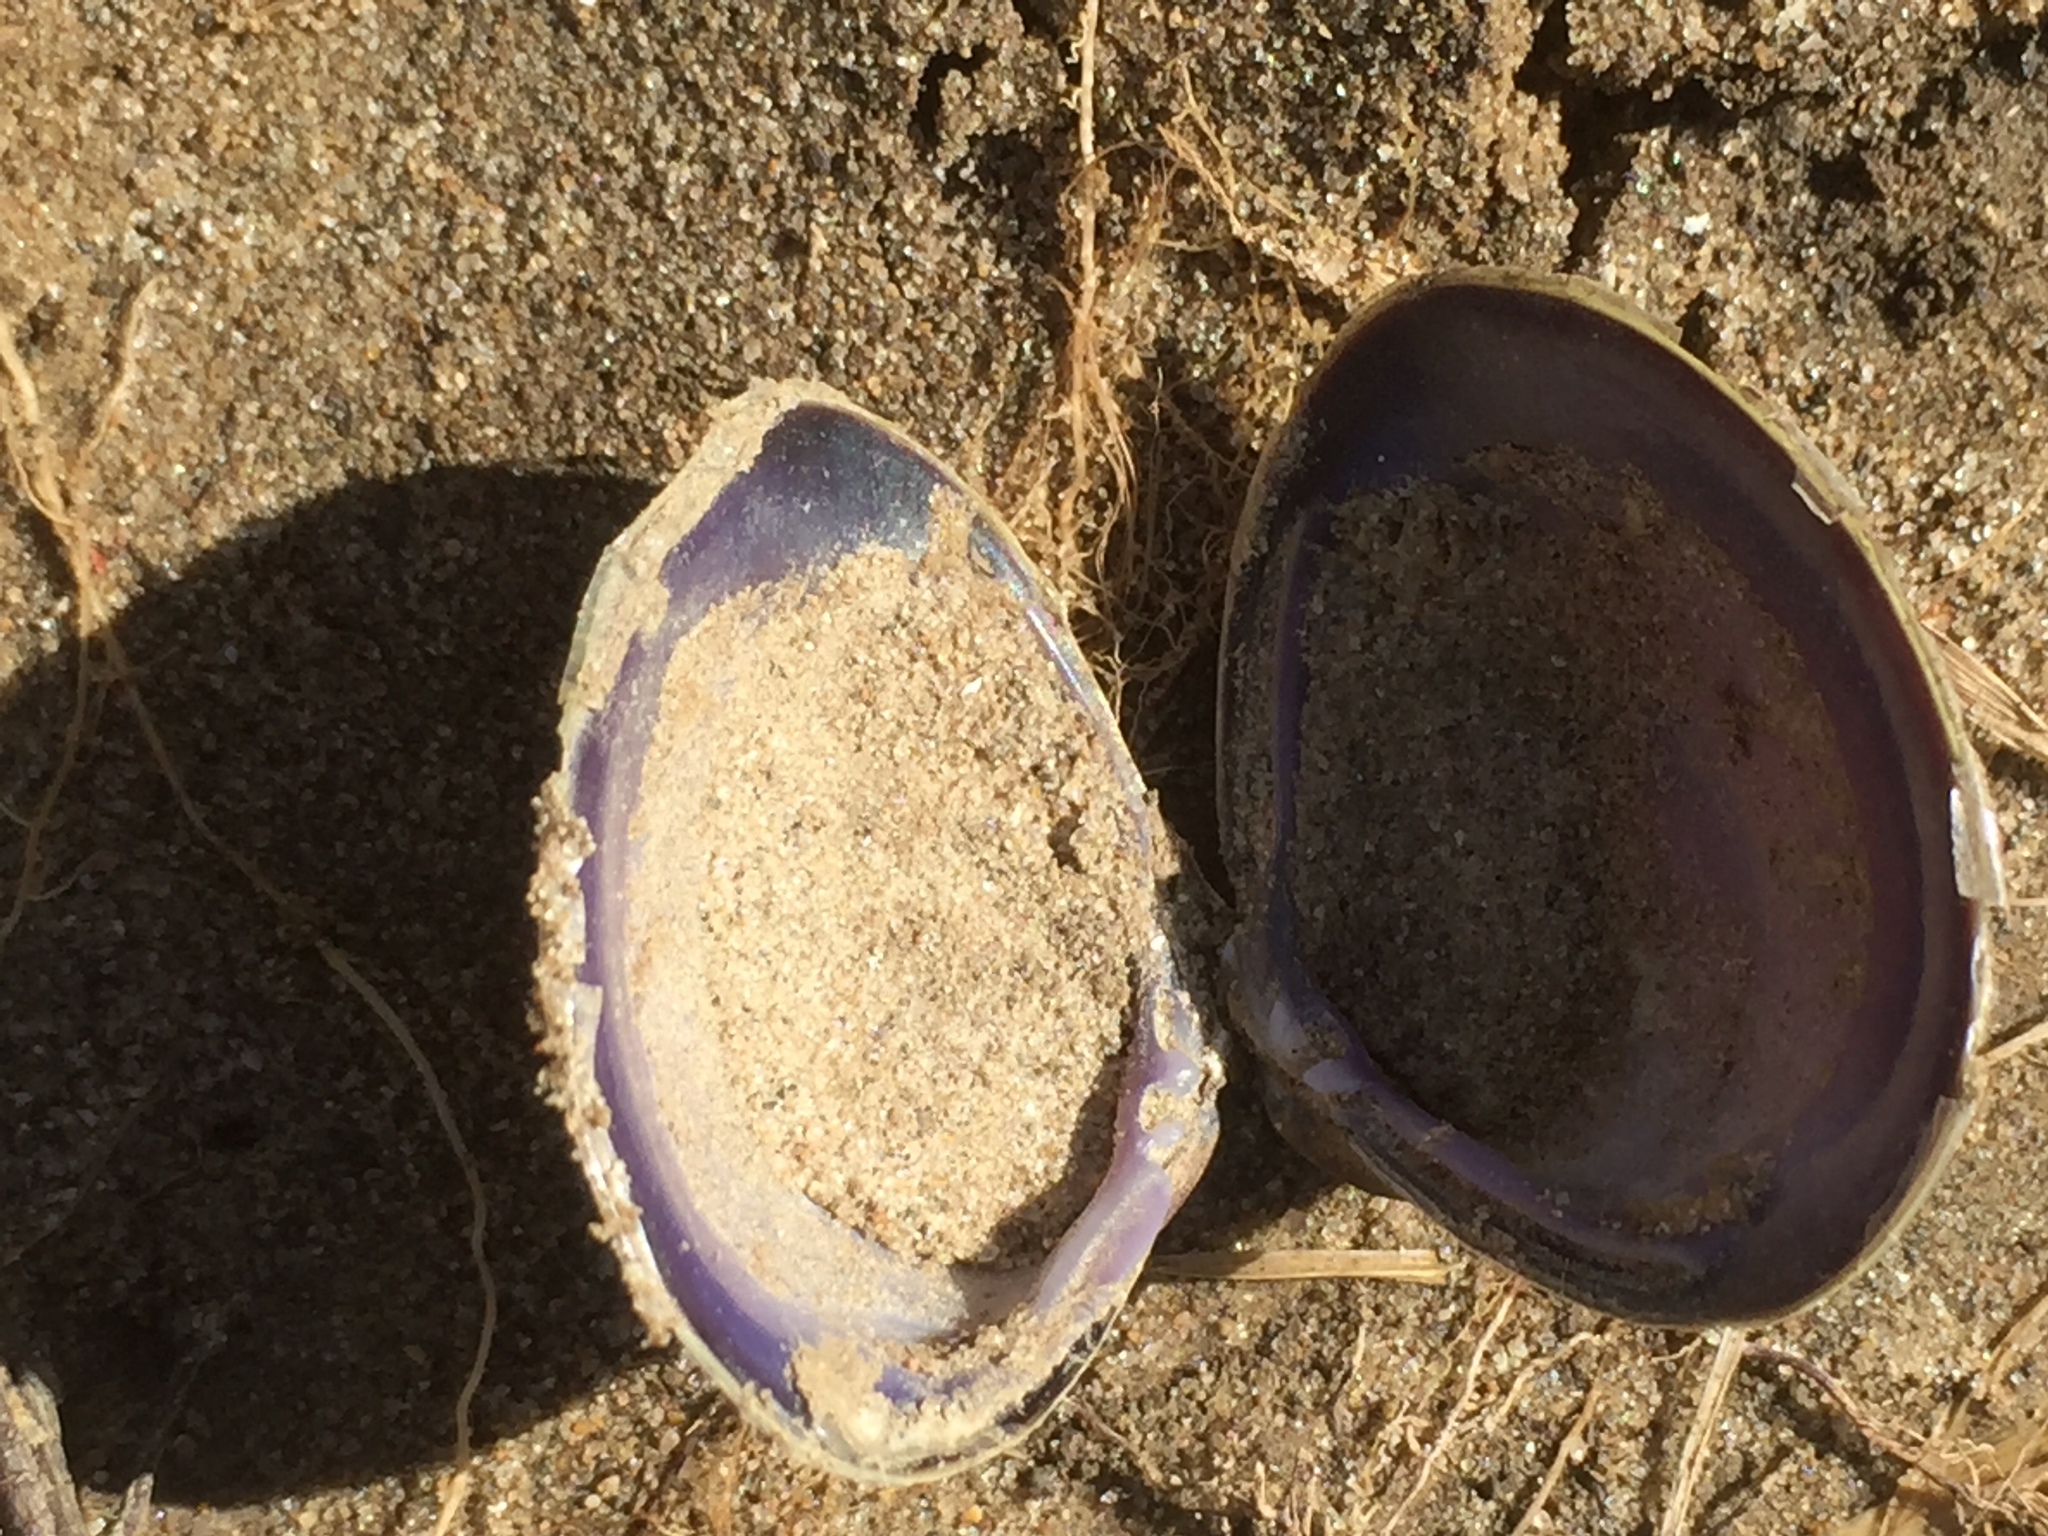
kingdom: Animalia
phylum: Mollusca
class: Bivalvia
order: Venerida
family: Cyrenidae
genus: Corbicula
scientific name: Corbicula fluminea
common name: Asian clam
